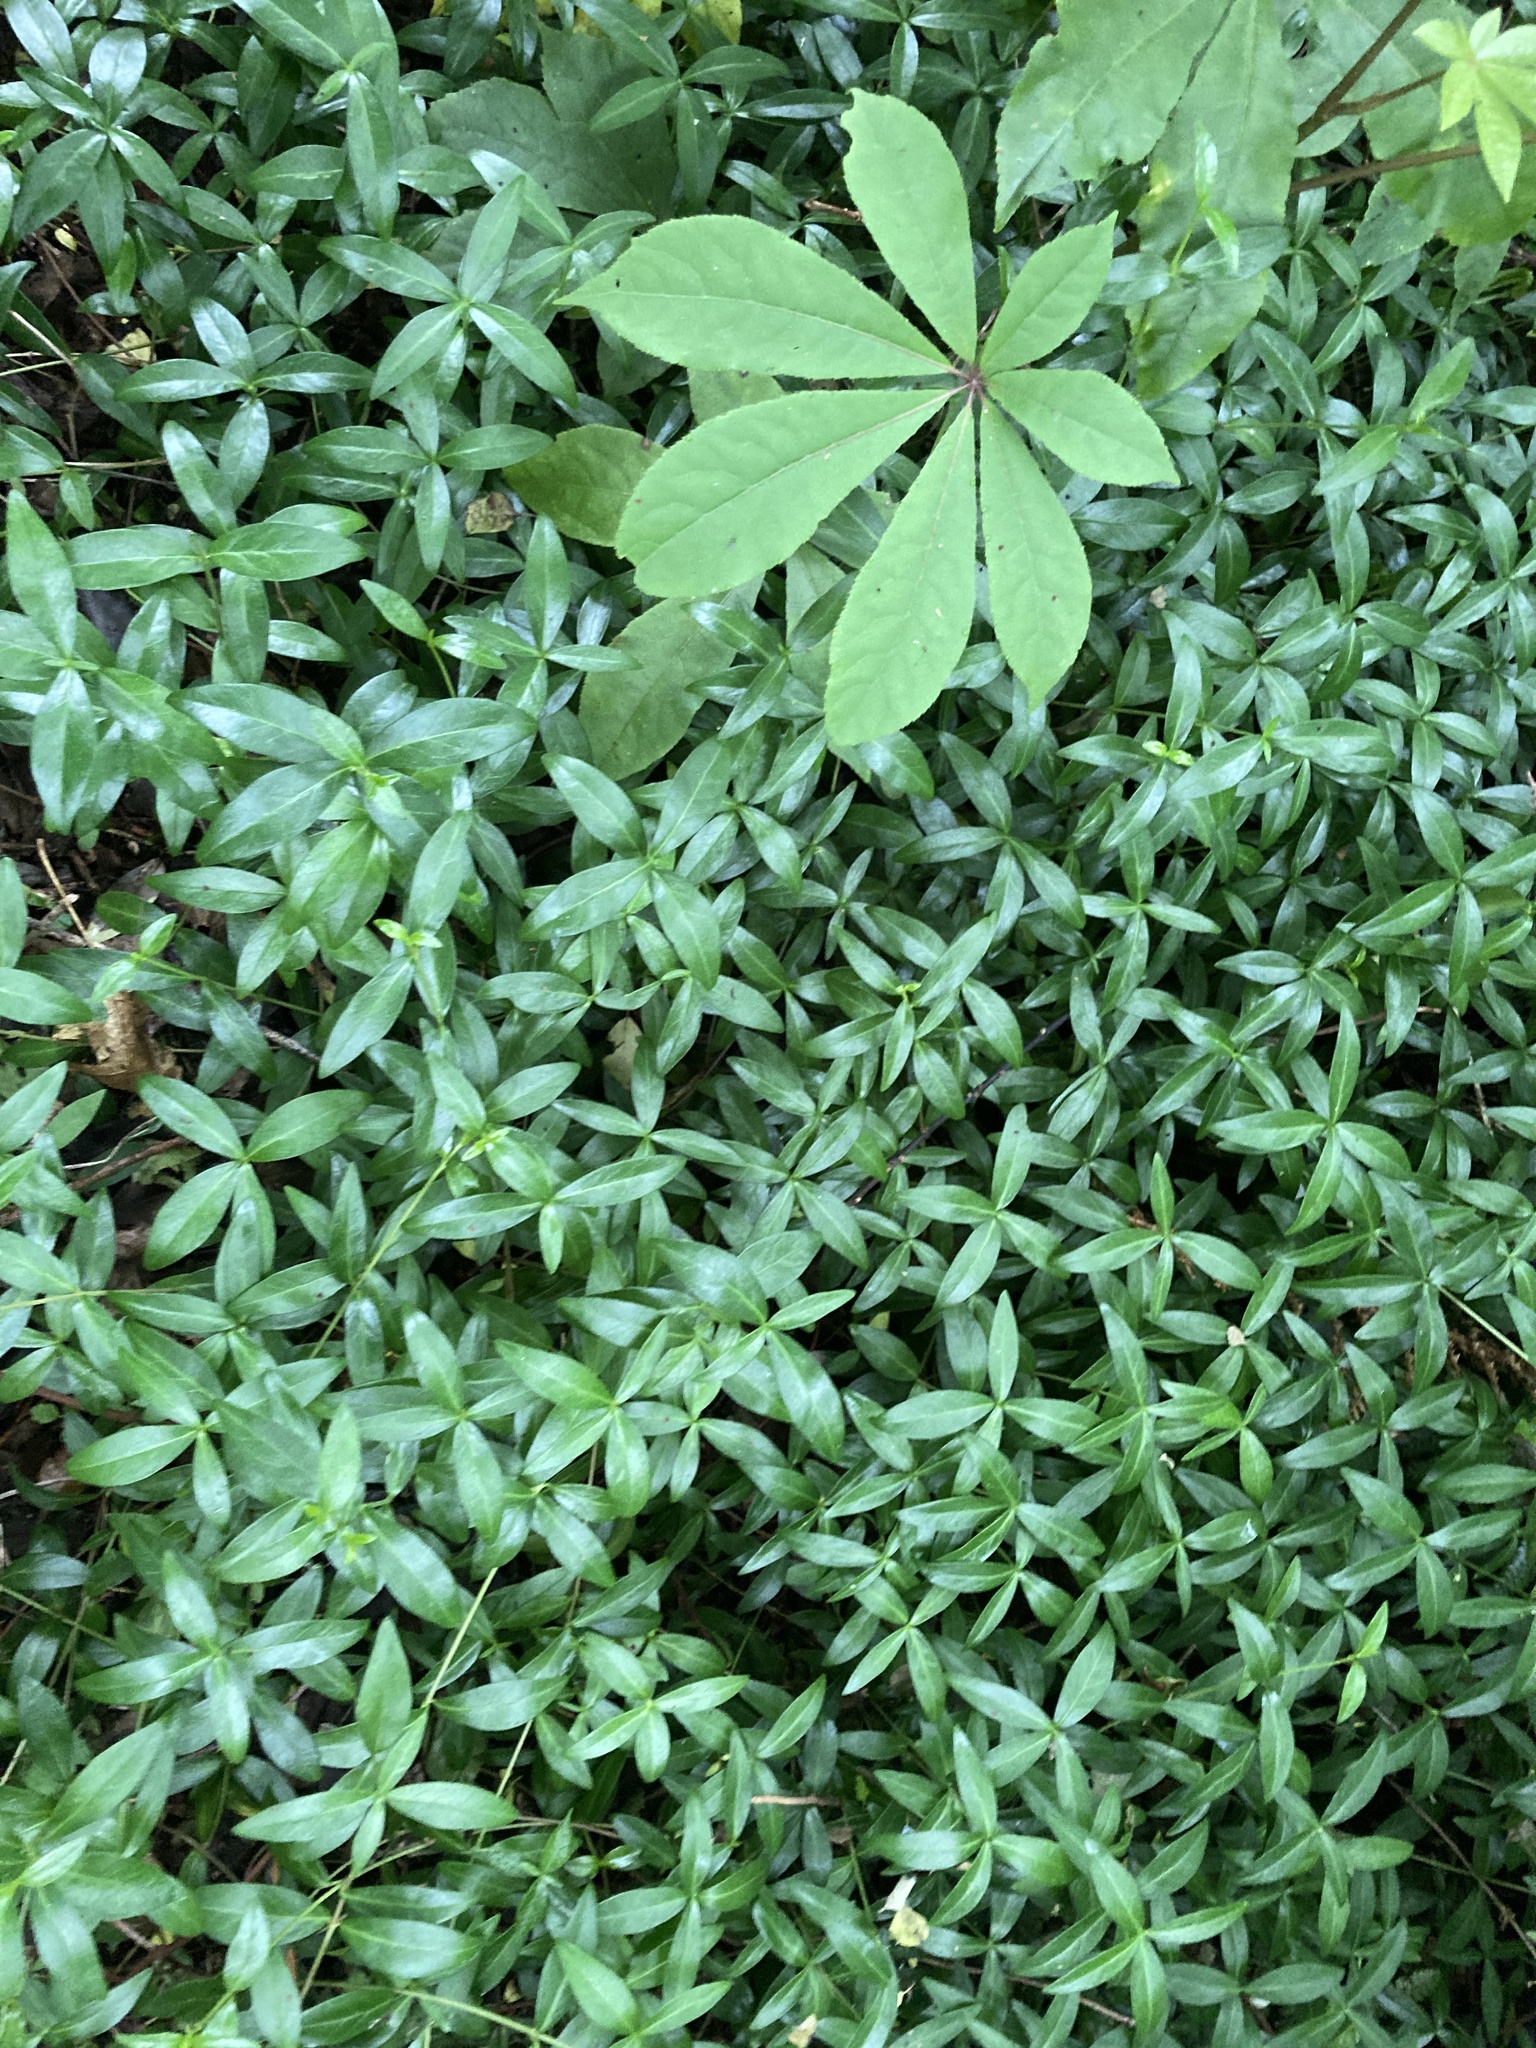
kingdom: Plantae
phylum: Tracheophyta
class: Magnoliopsida
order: Gentianales
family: Apocynaceae
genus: Vinca
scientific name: Vinca minor
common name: Lesser periwinkle
